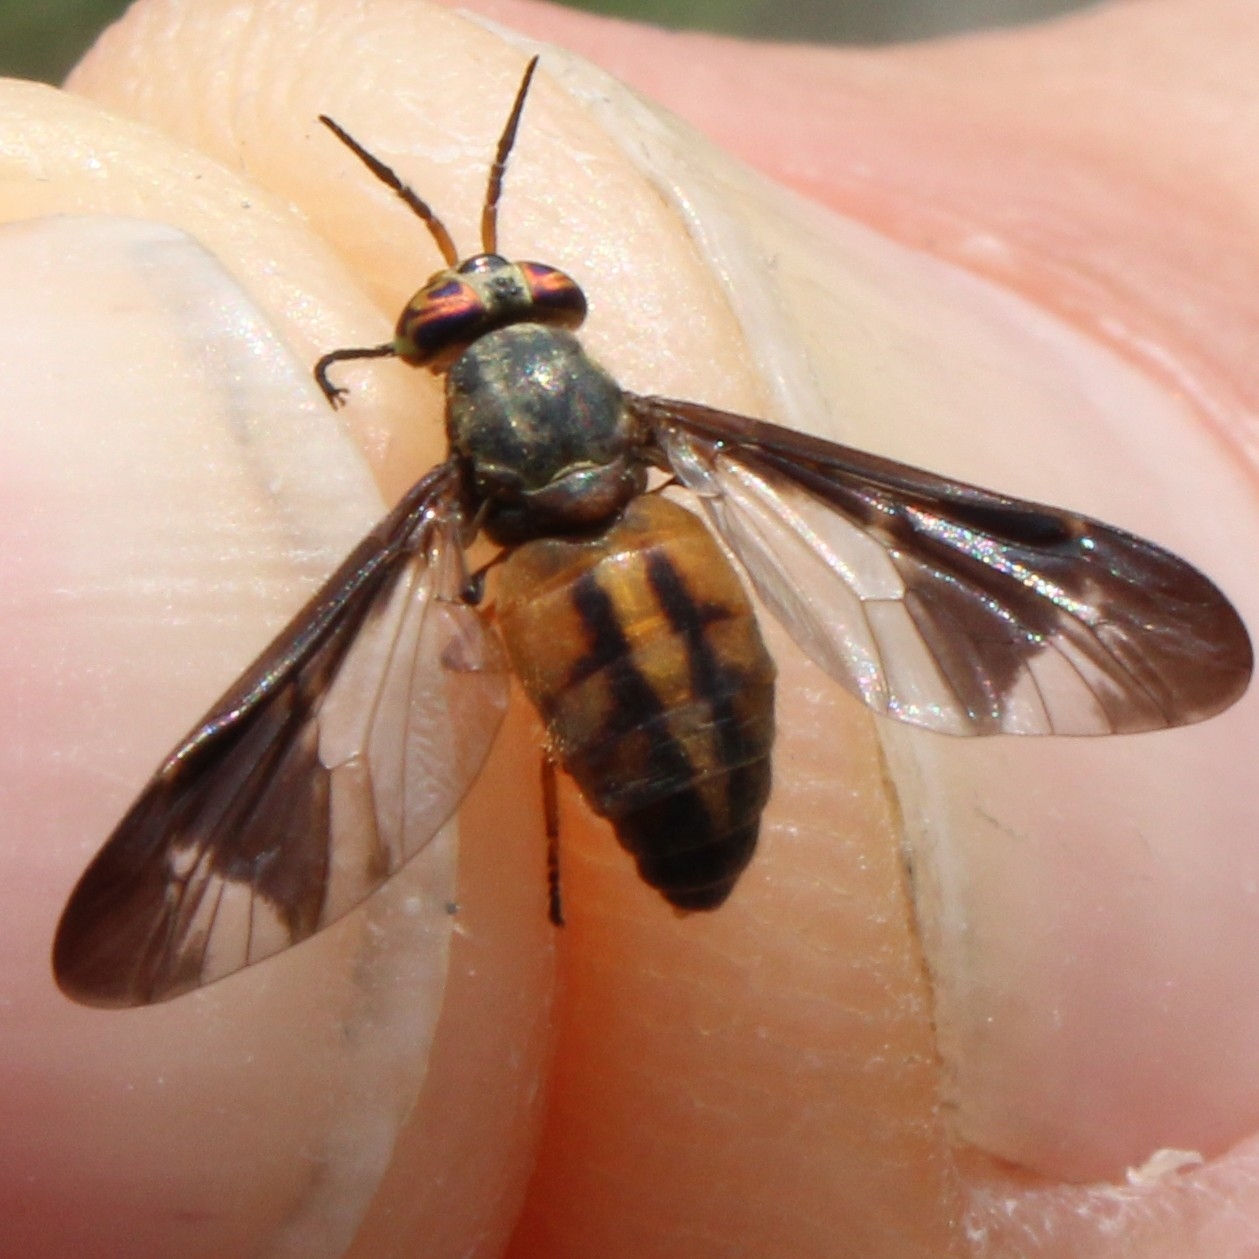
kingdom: Animalia
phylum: Arthropoda
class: Insecta
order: Diptera
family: Tabanidae
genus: Chrysops
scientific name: Chrysops macquarti
